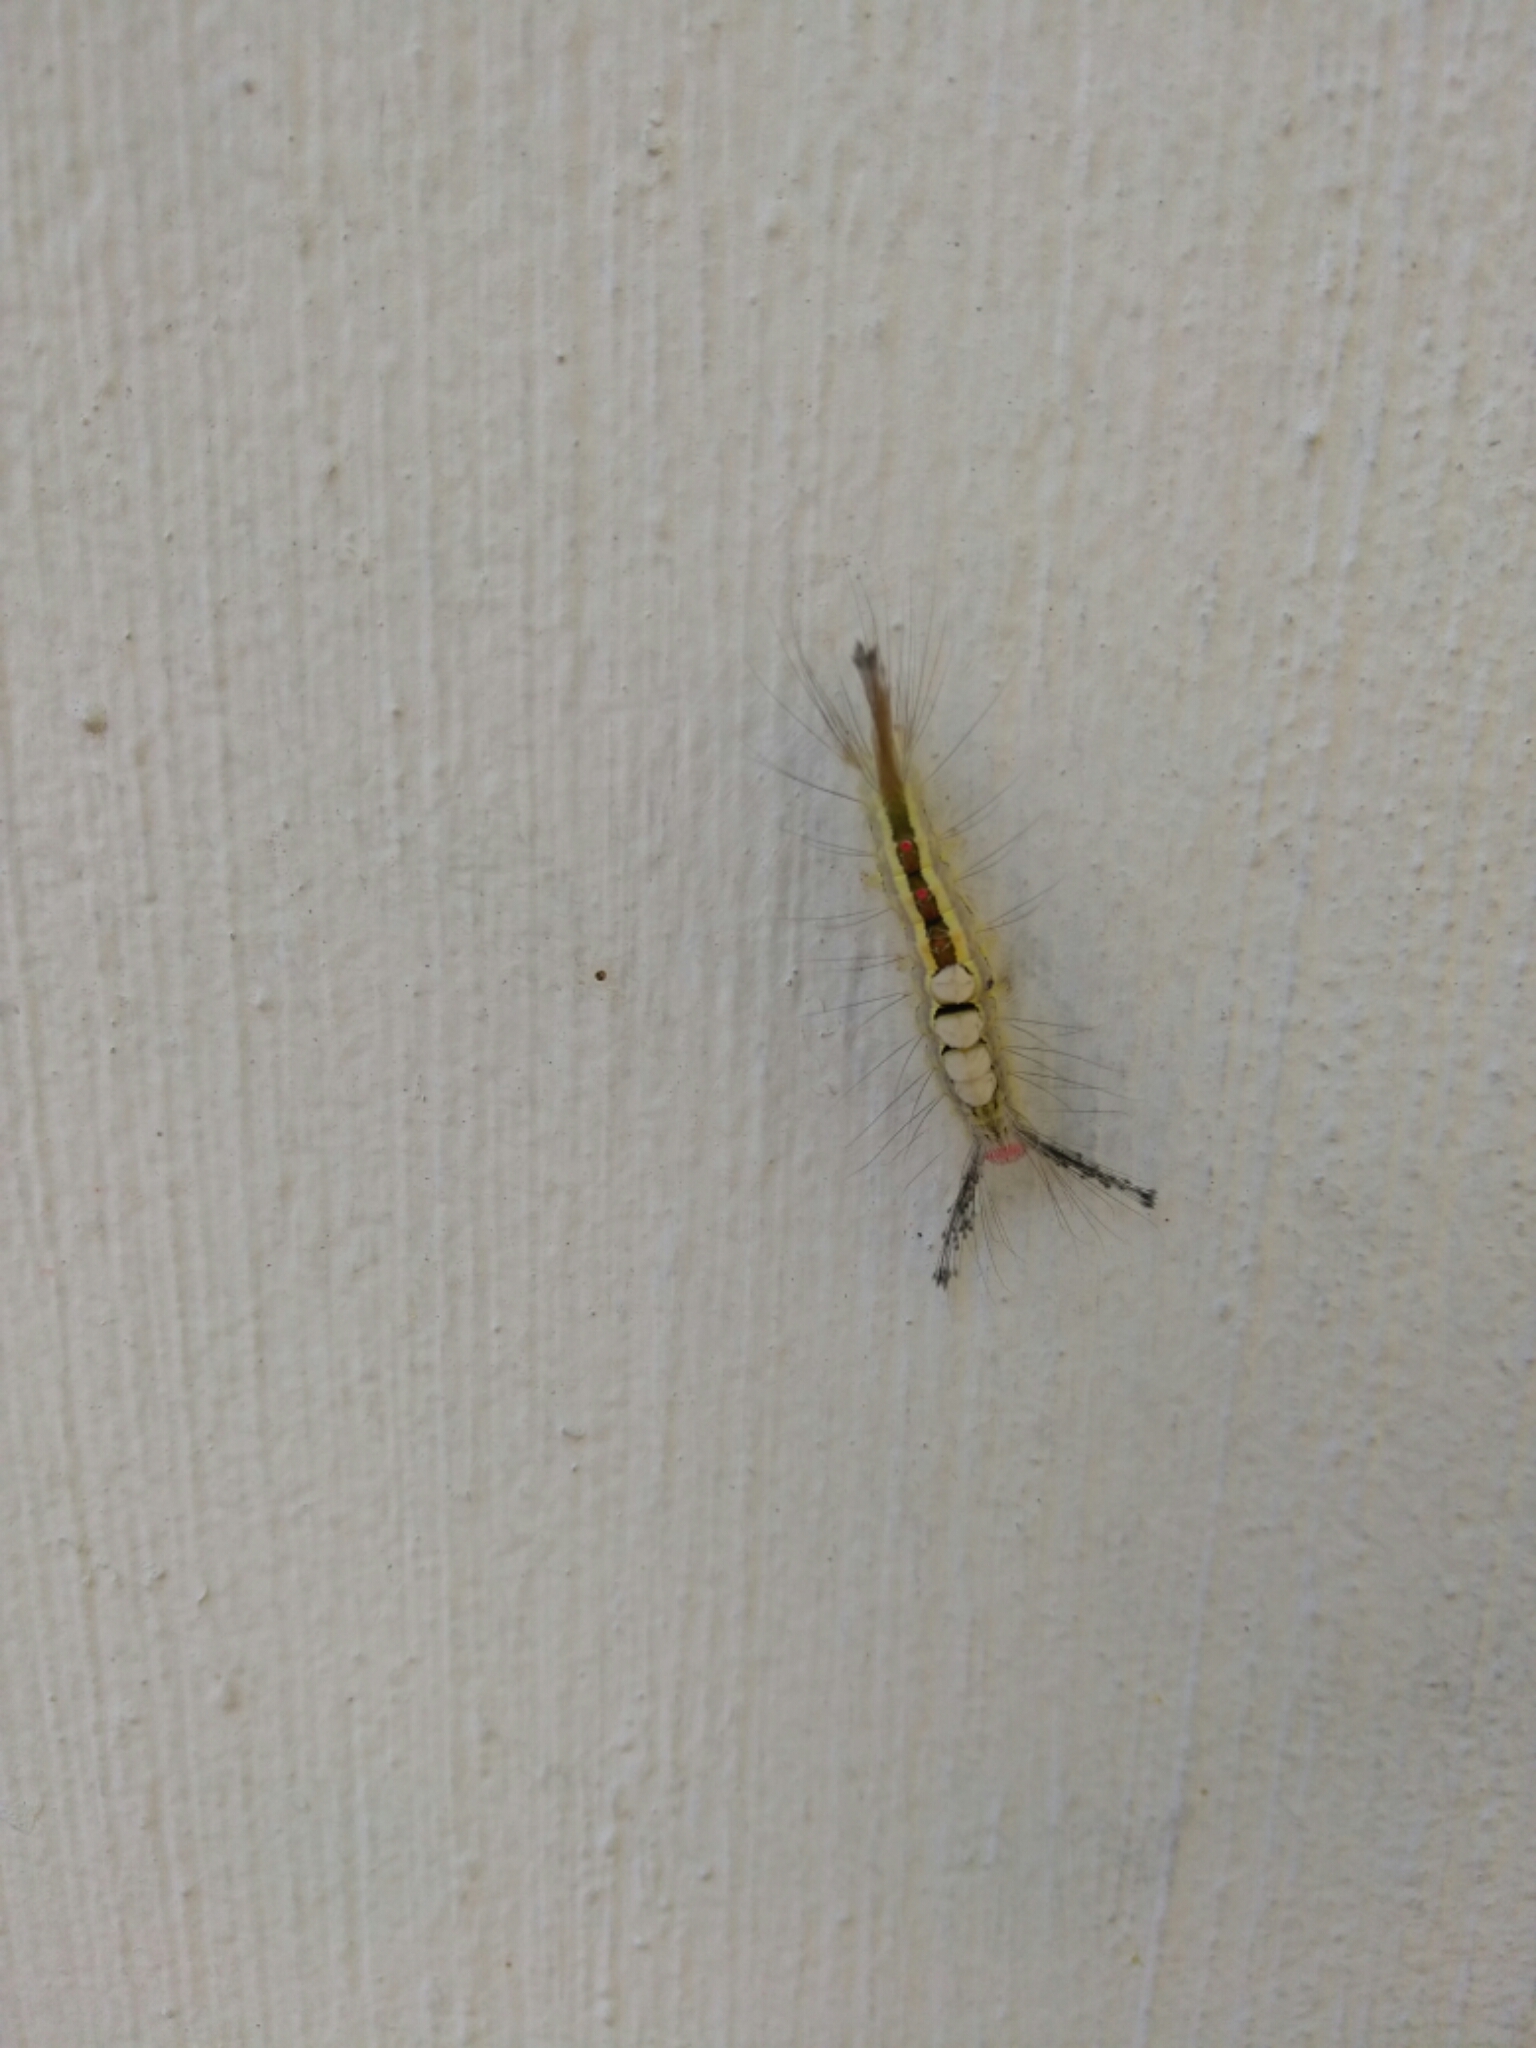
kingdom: Animalia
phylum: Arthropoda
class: Insecta
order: Lepidoptera
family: Erebidae
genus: Orgyia
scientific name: Orgyia leucostigma
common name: White-marked tussock moth
